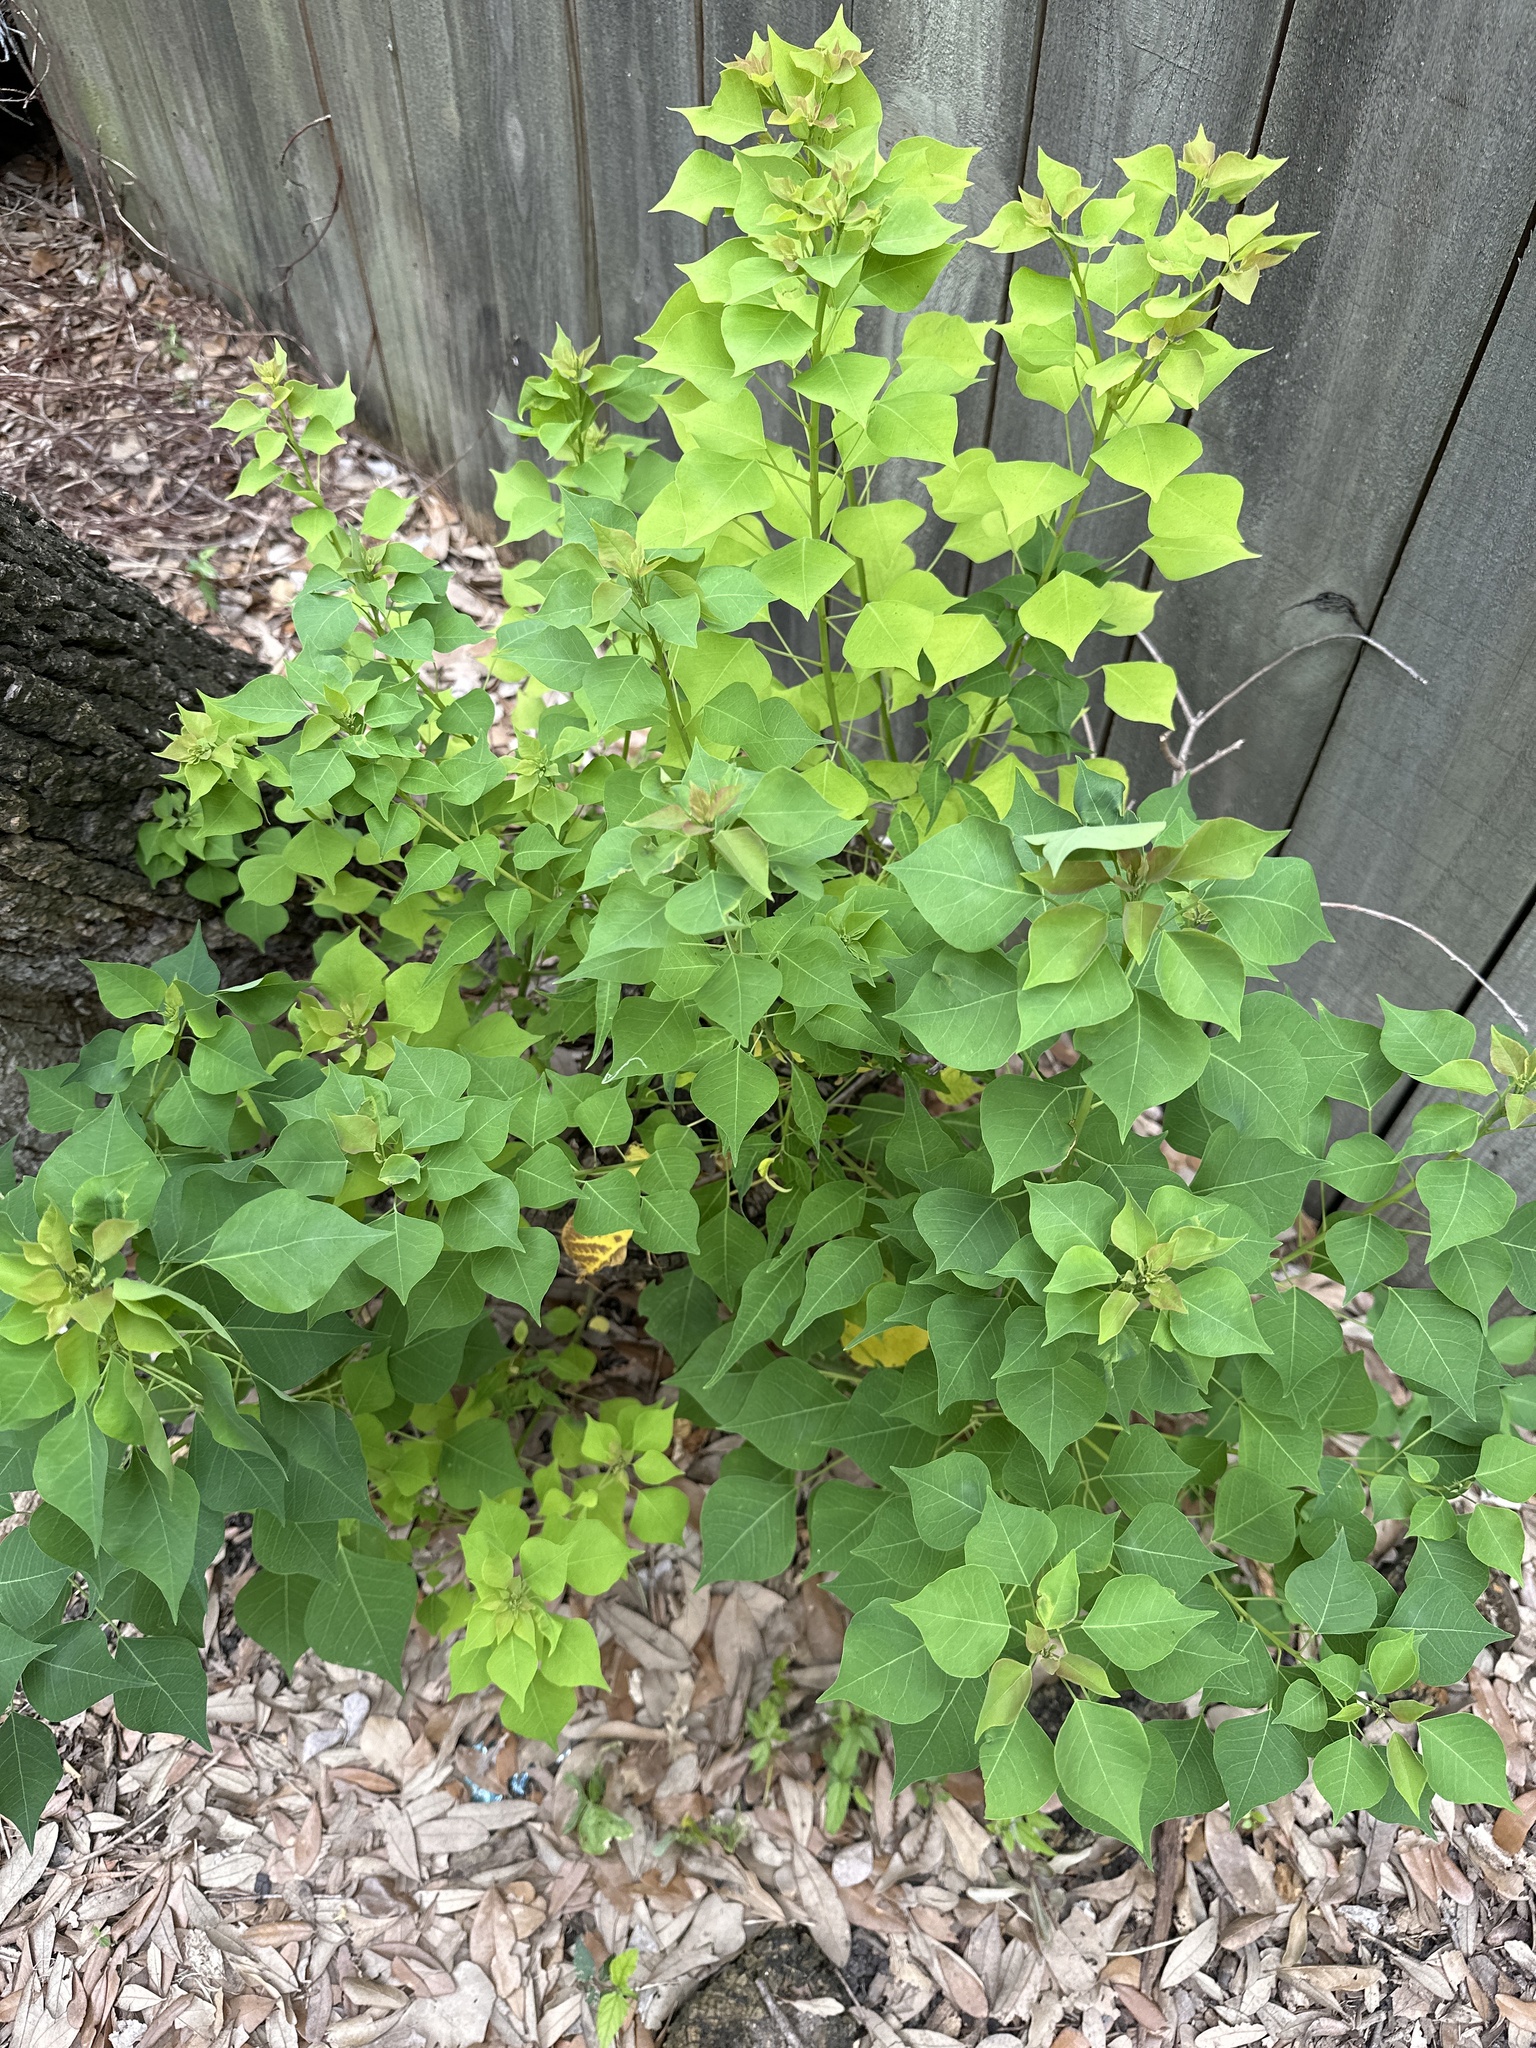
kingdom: Plantae
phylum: Tracheophyta
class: Magnoliopsida
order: Malpighiales
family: Euphorbiaceae
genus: Triadica
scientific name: Triadica sebifera
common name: Chinese tallow
